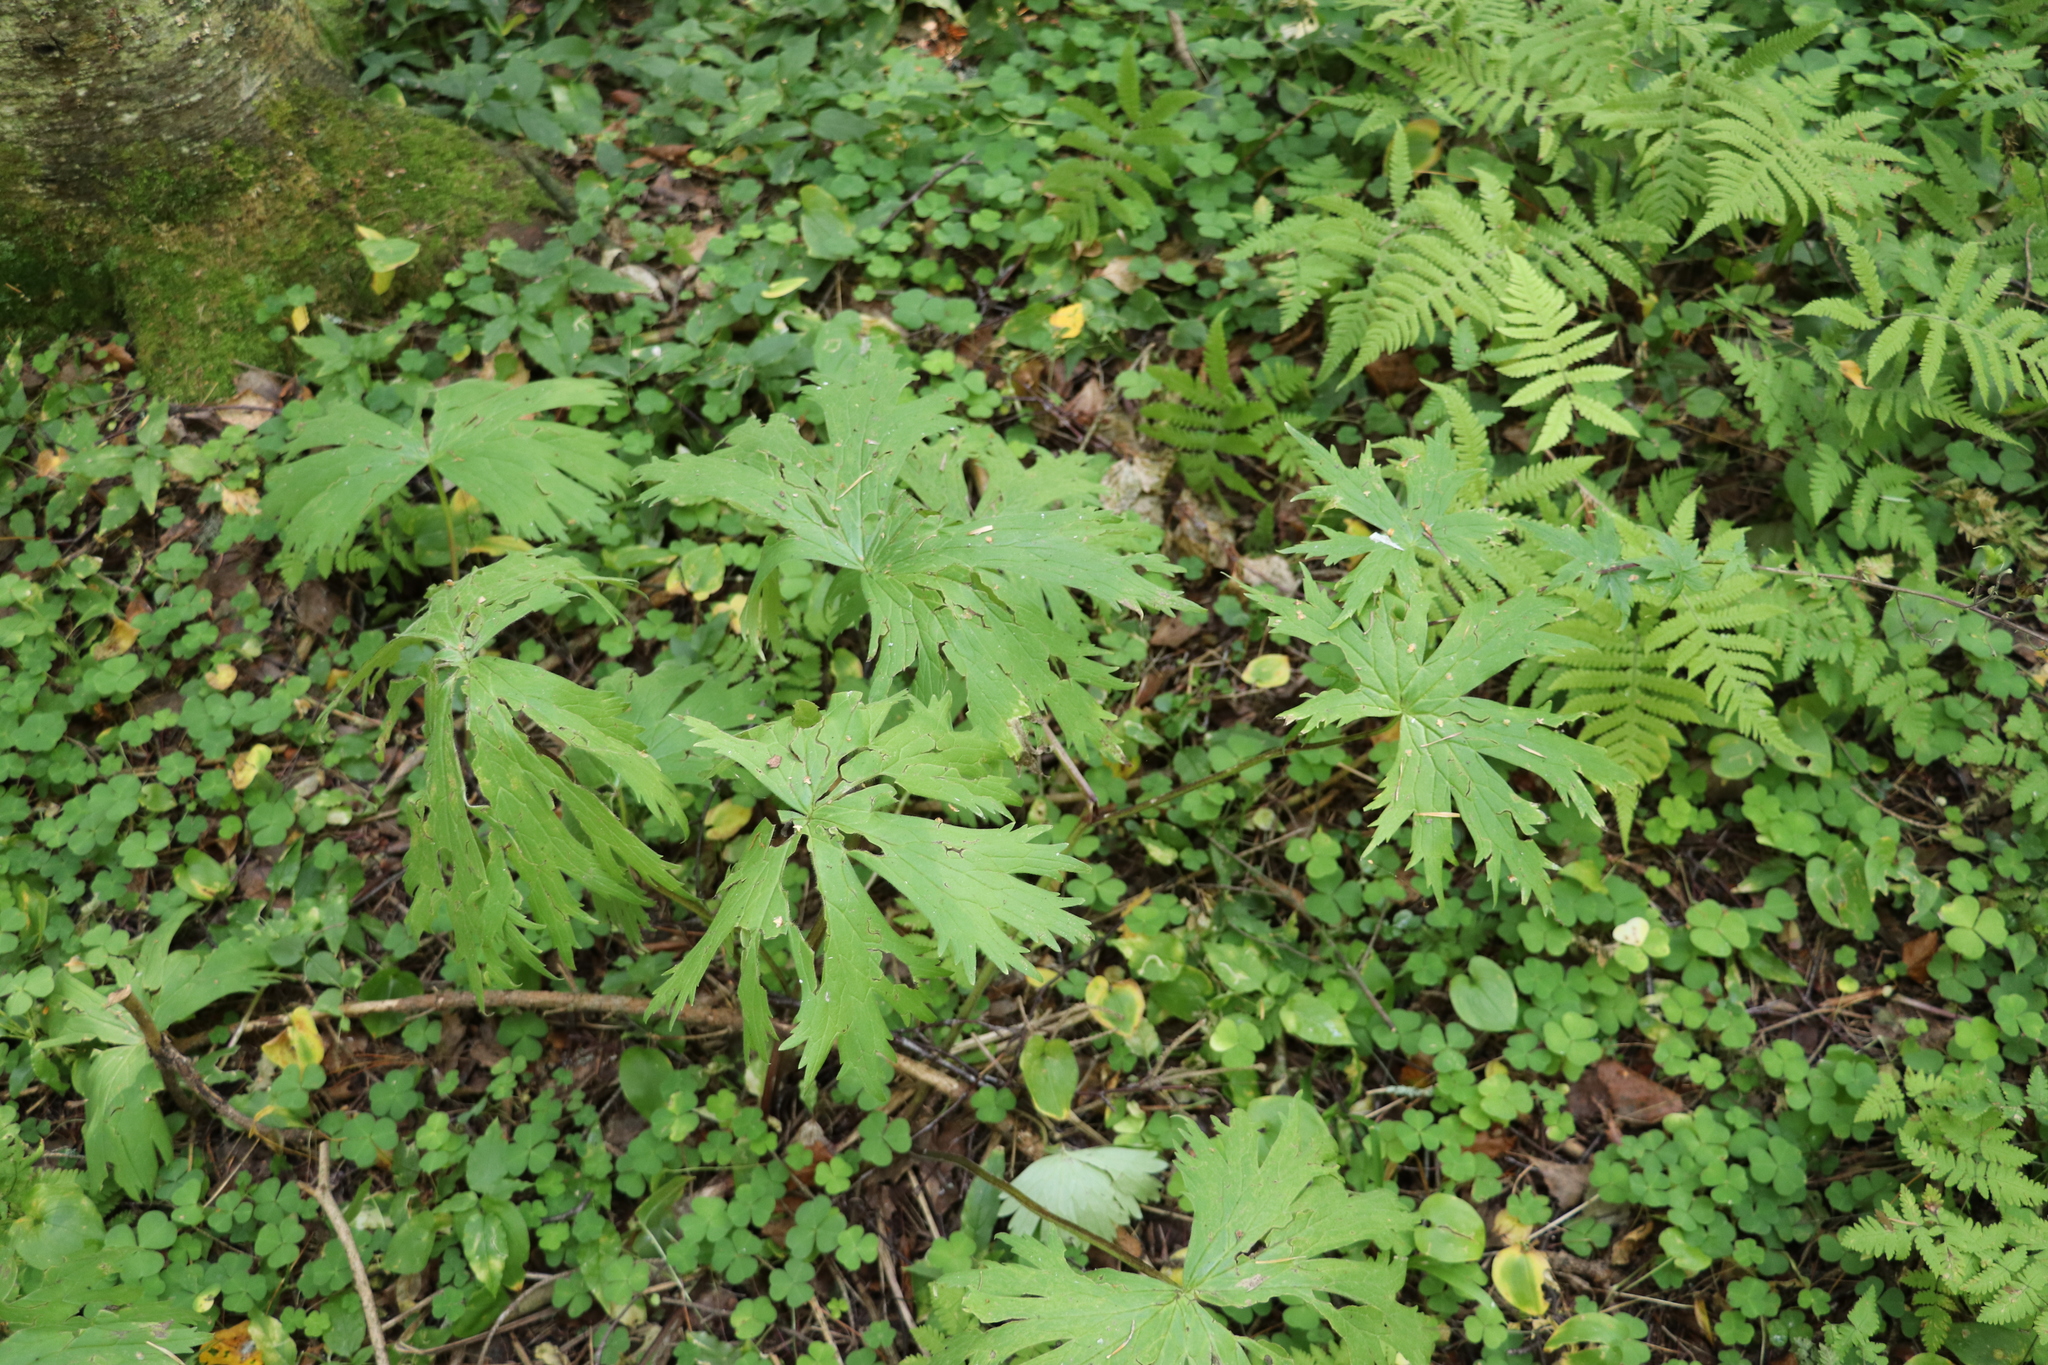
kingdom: Plantae
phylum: Tracheophyta
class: Magnoliopsida
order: Ranunculales
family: Ranunculaceae
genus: Aconitum
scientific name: Aconitum septentrionale
